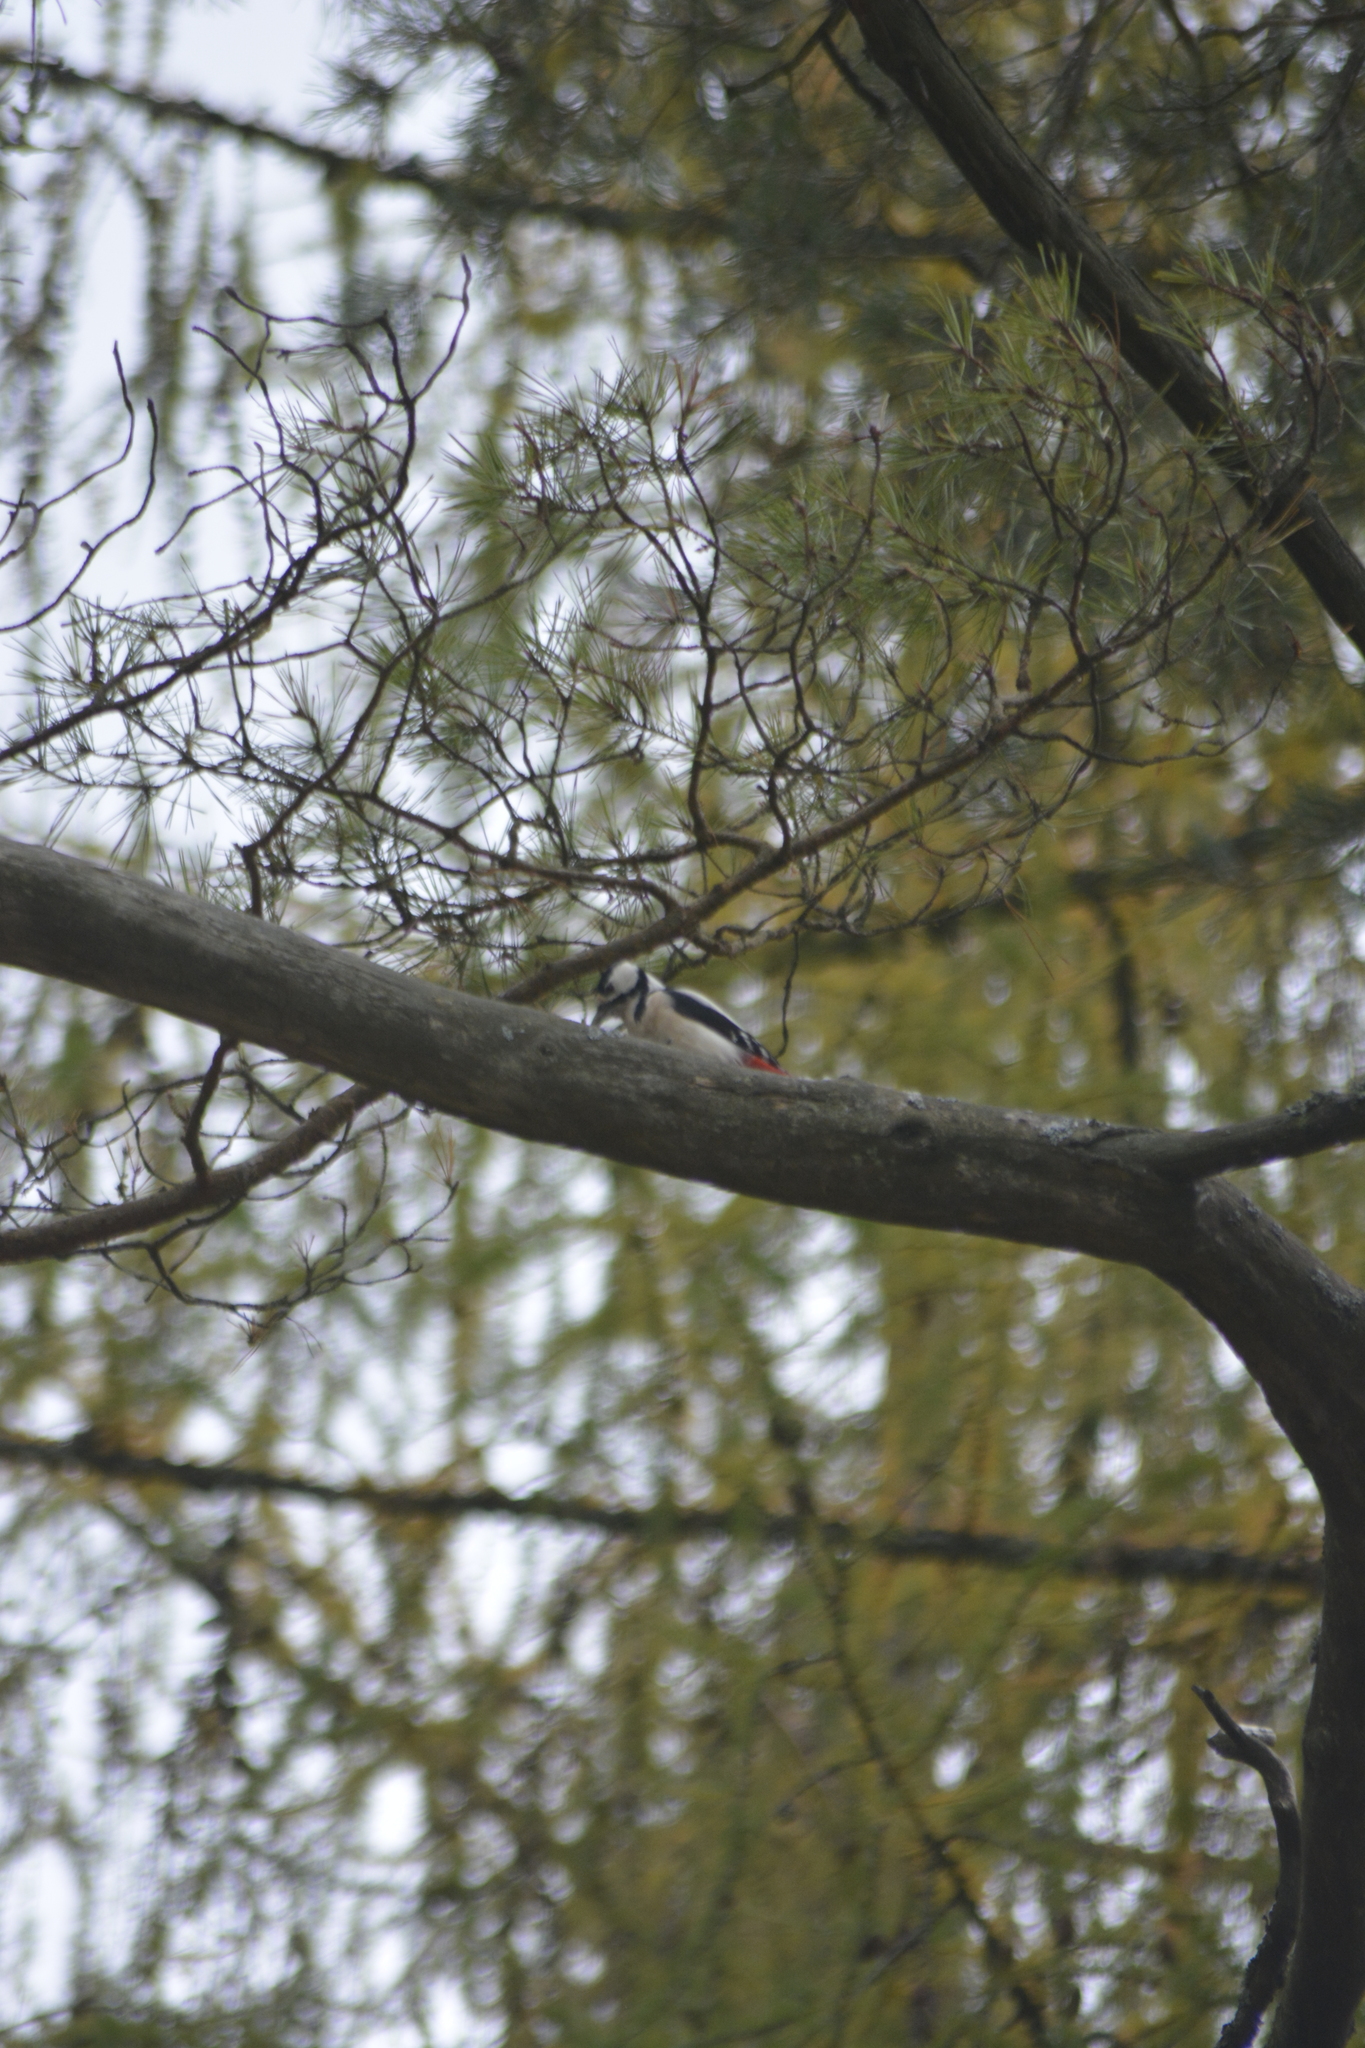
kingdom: Animalia
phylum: Chordata
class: Aves
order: Piciformes
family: Picidae
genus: Dendrocopos
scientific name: Dendrocopos major
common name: Great spotted woodpecker
